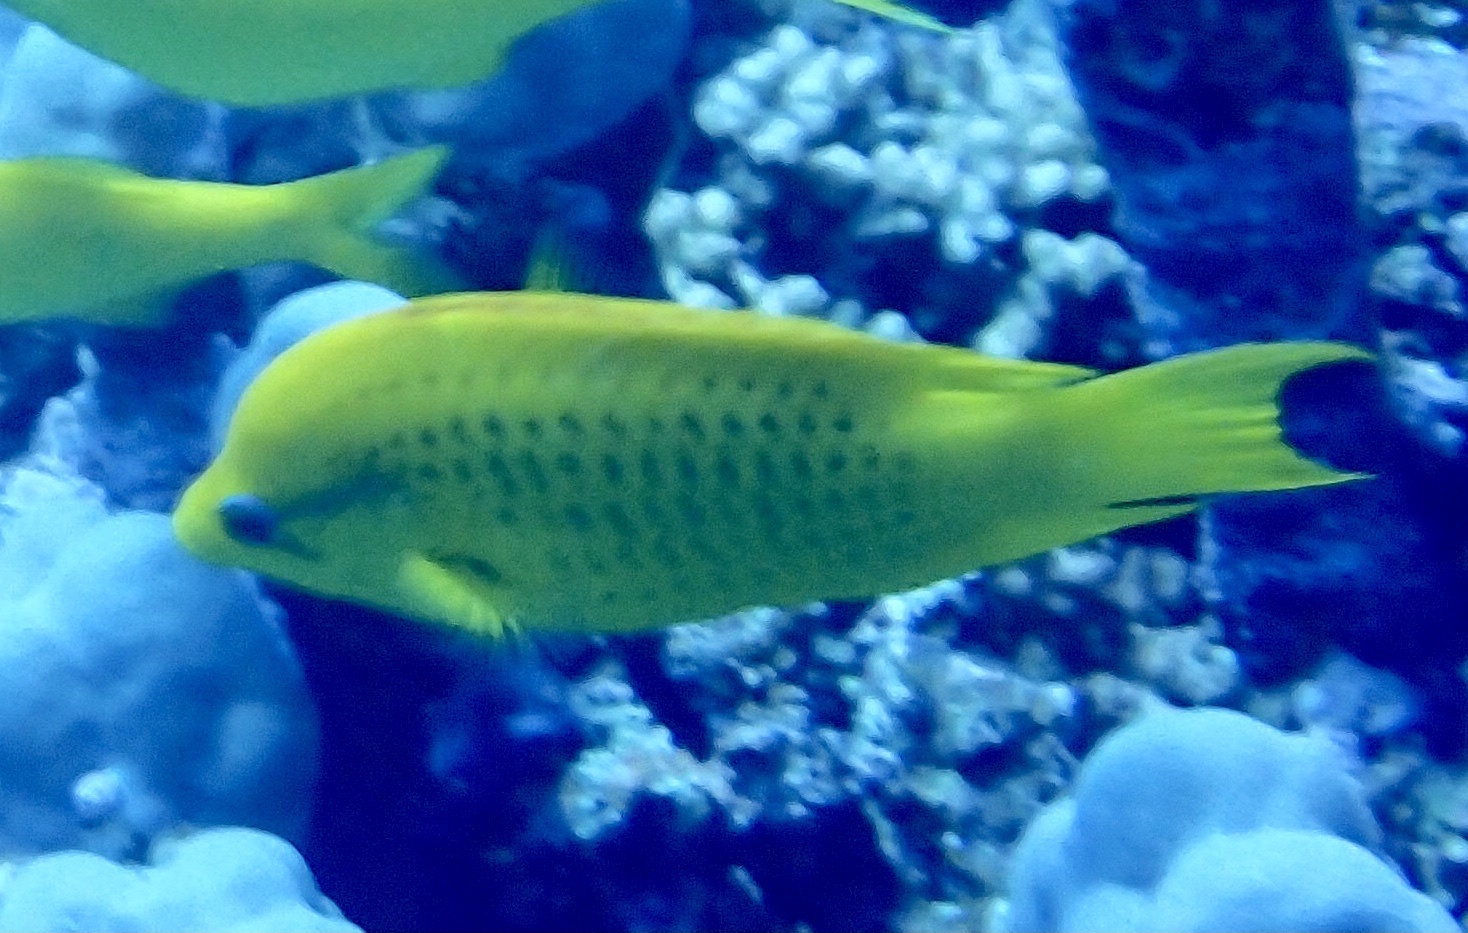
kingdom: Animalia
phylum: Chordata
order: Perciformes
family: Labridae
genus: Epibulus
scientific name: Epibulus insidiator
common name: Slingjaw wrasse
